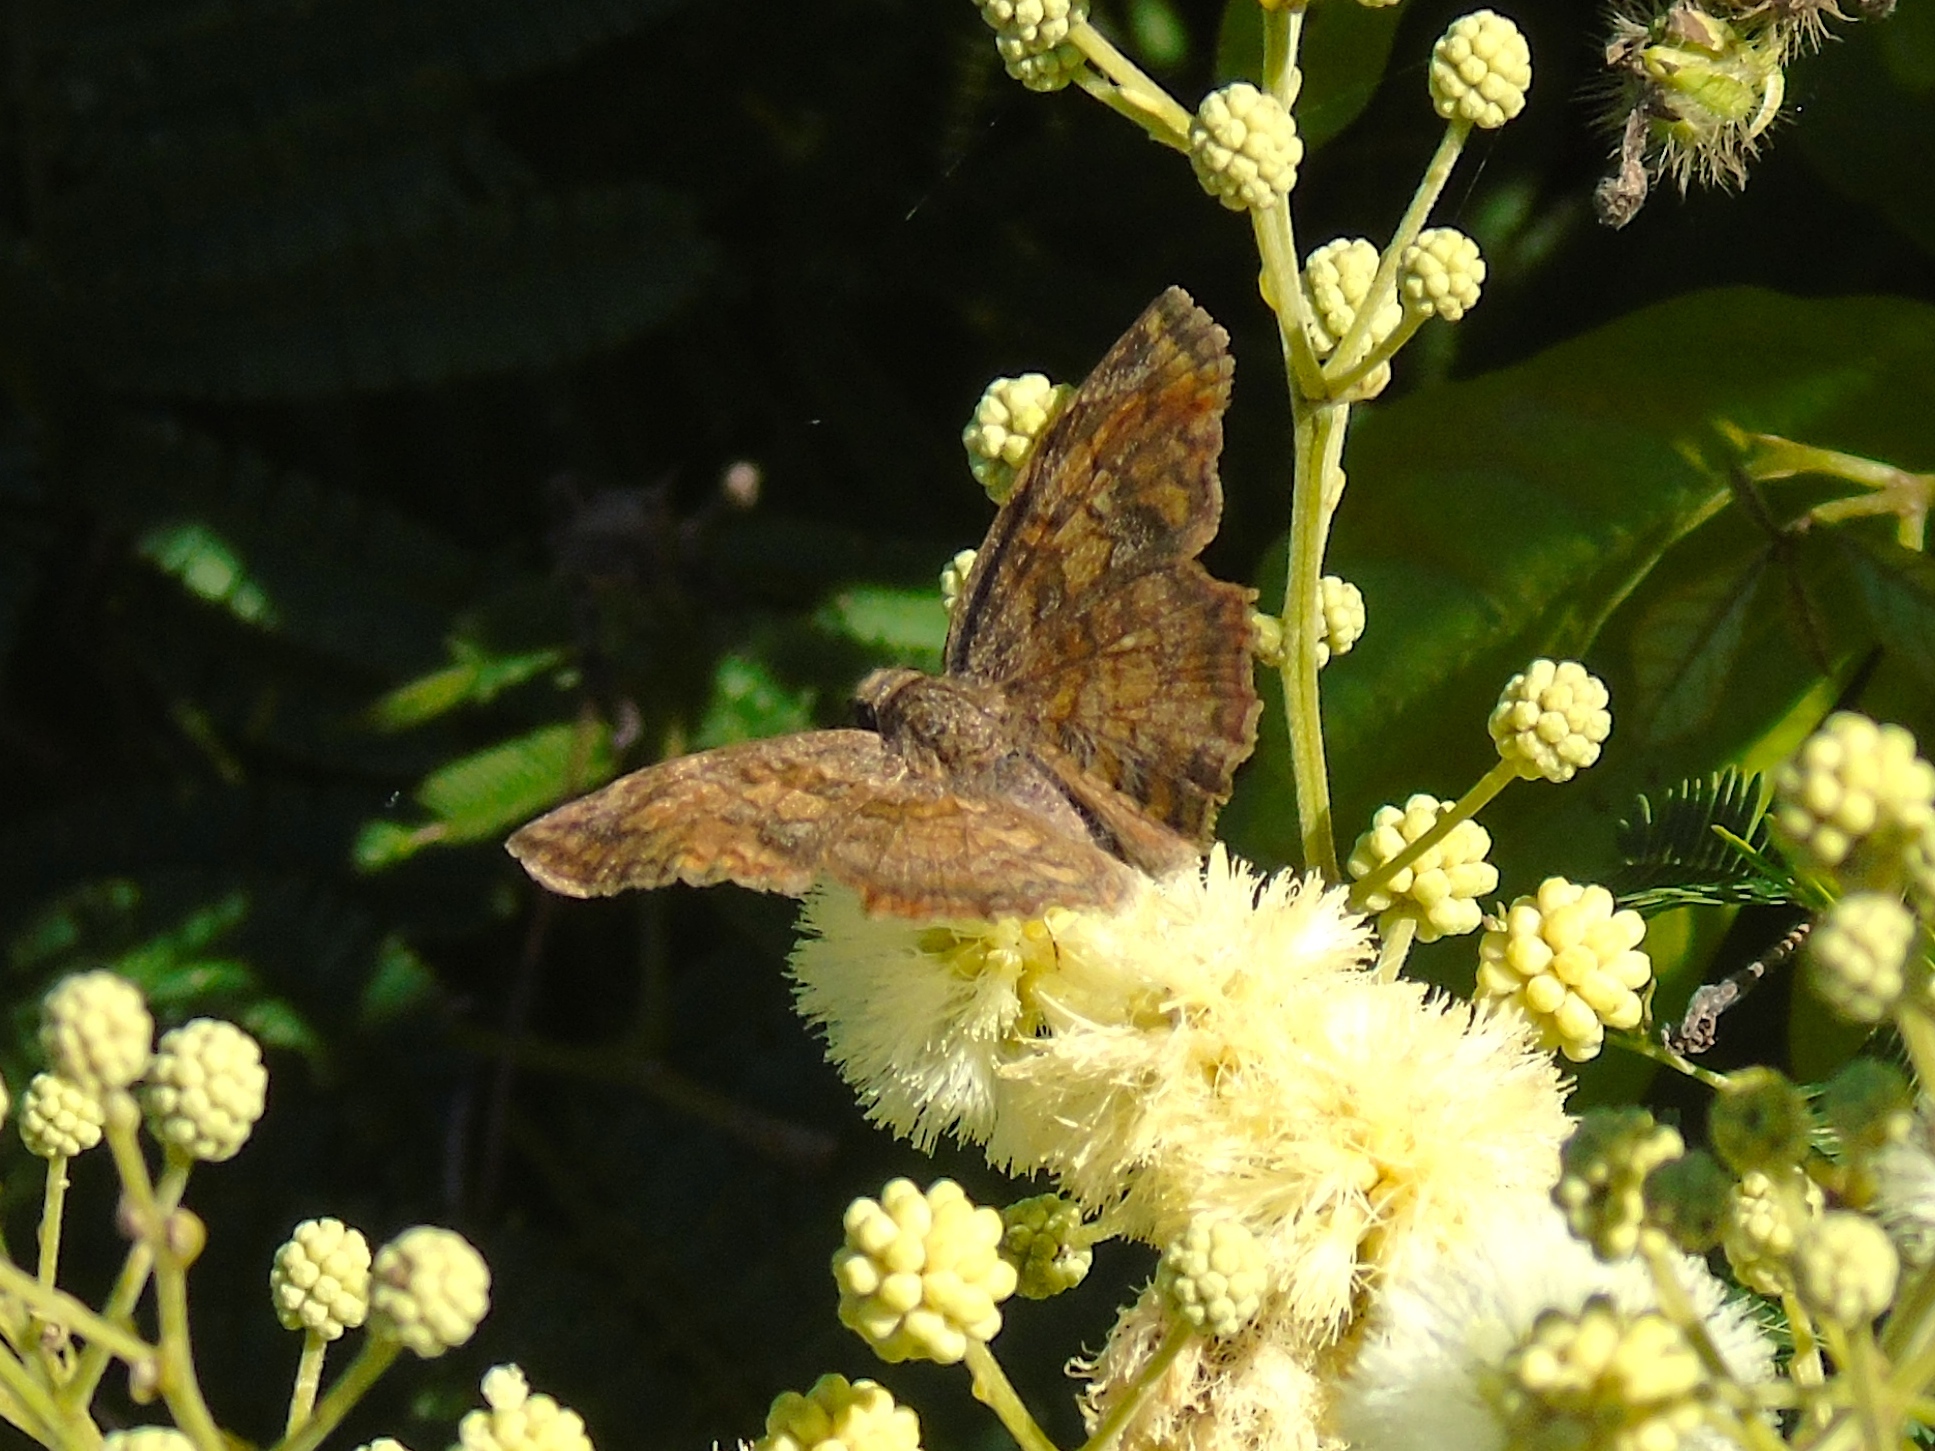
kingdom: Animalia
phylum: Arthropoda
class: Insecta
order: Lepidoptera
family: Hesperiidae
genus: Antigonus
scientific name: Antigonus erosus
